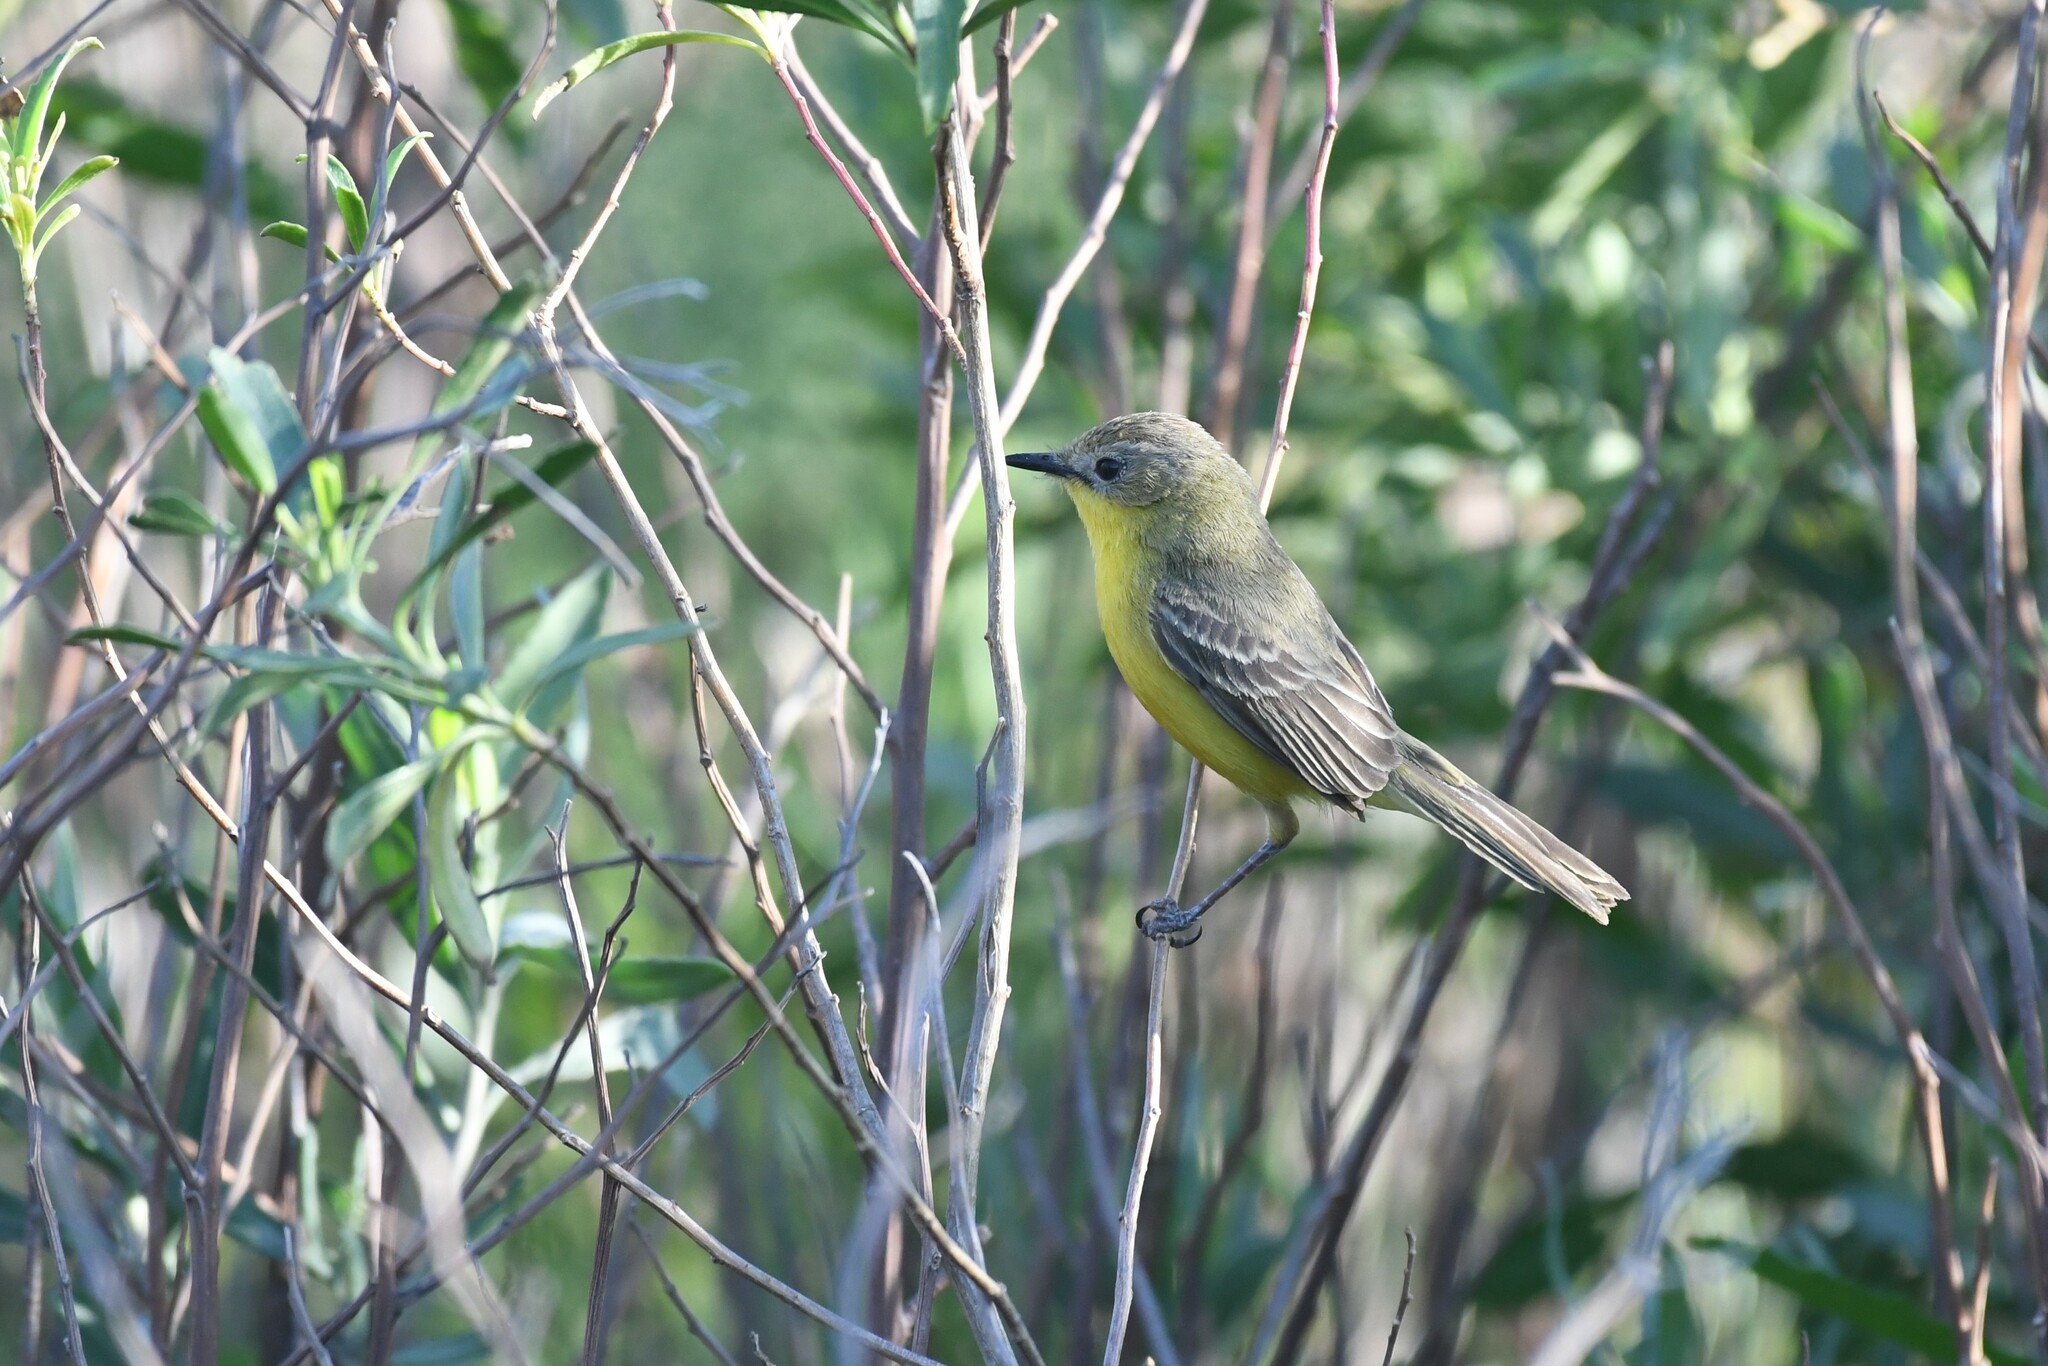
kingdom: Animalia
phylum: Chordata
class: Aves
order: Passeriformes
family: Tyrannidae
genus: Pseudocolopteryx
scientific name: Pseudocolopteryx dinelliana
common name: Dinelli's doradito
